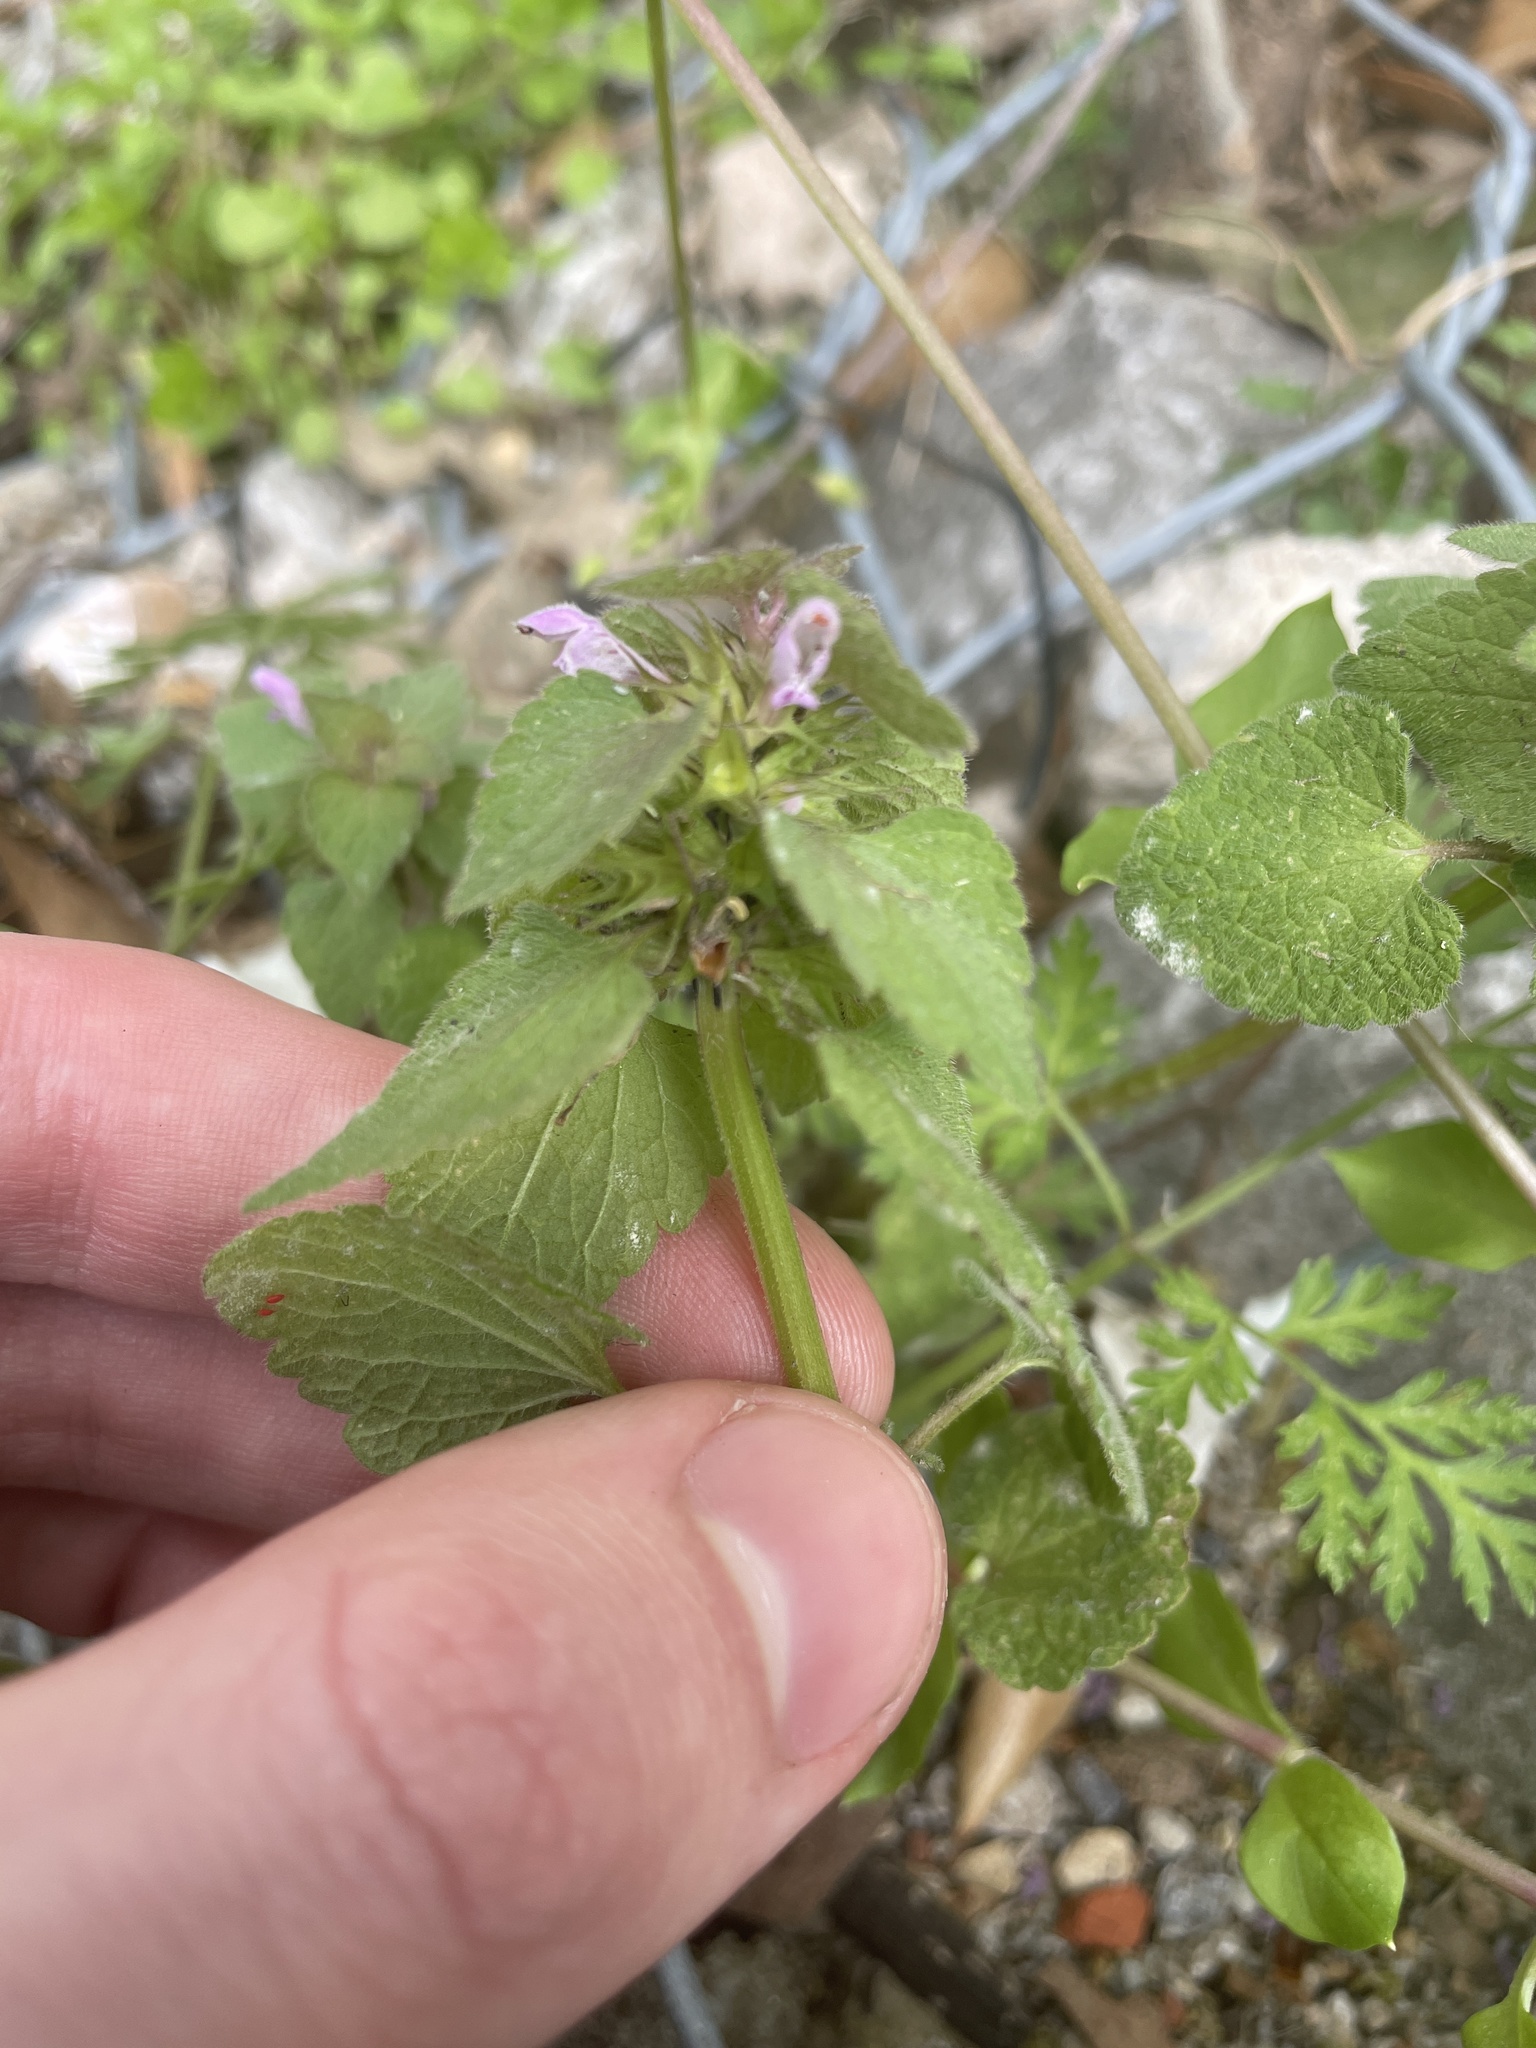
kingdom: Plantae
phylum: Tracheophyta
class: Magnoliopsida
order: Lamiales
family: Lamiaceae
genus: Lamium
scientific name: Lamium purpureum
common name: Red dead-nettle
